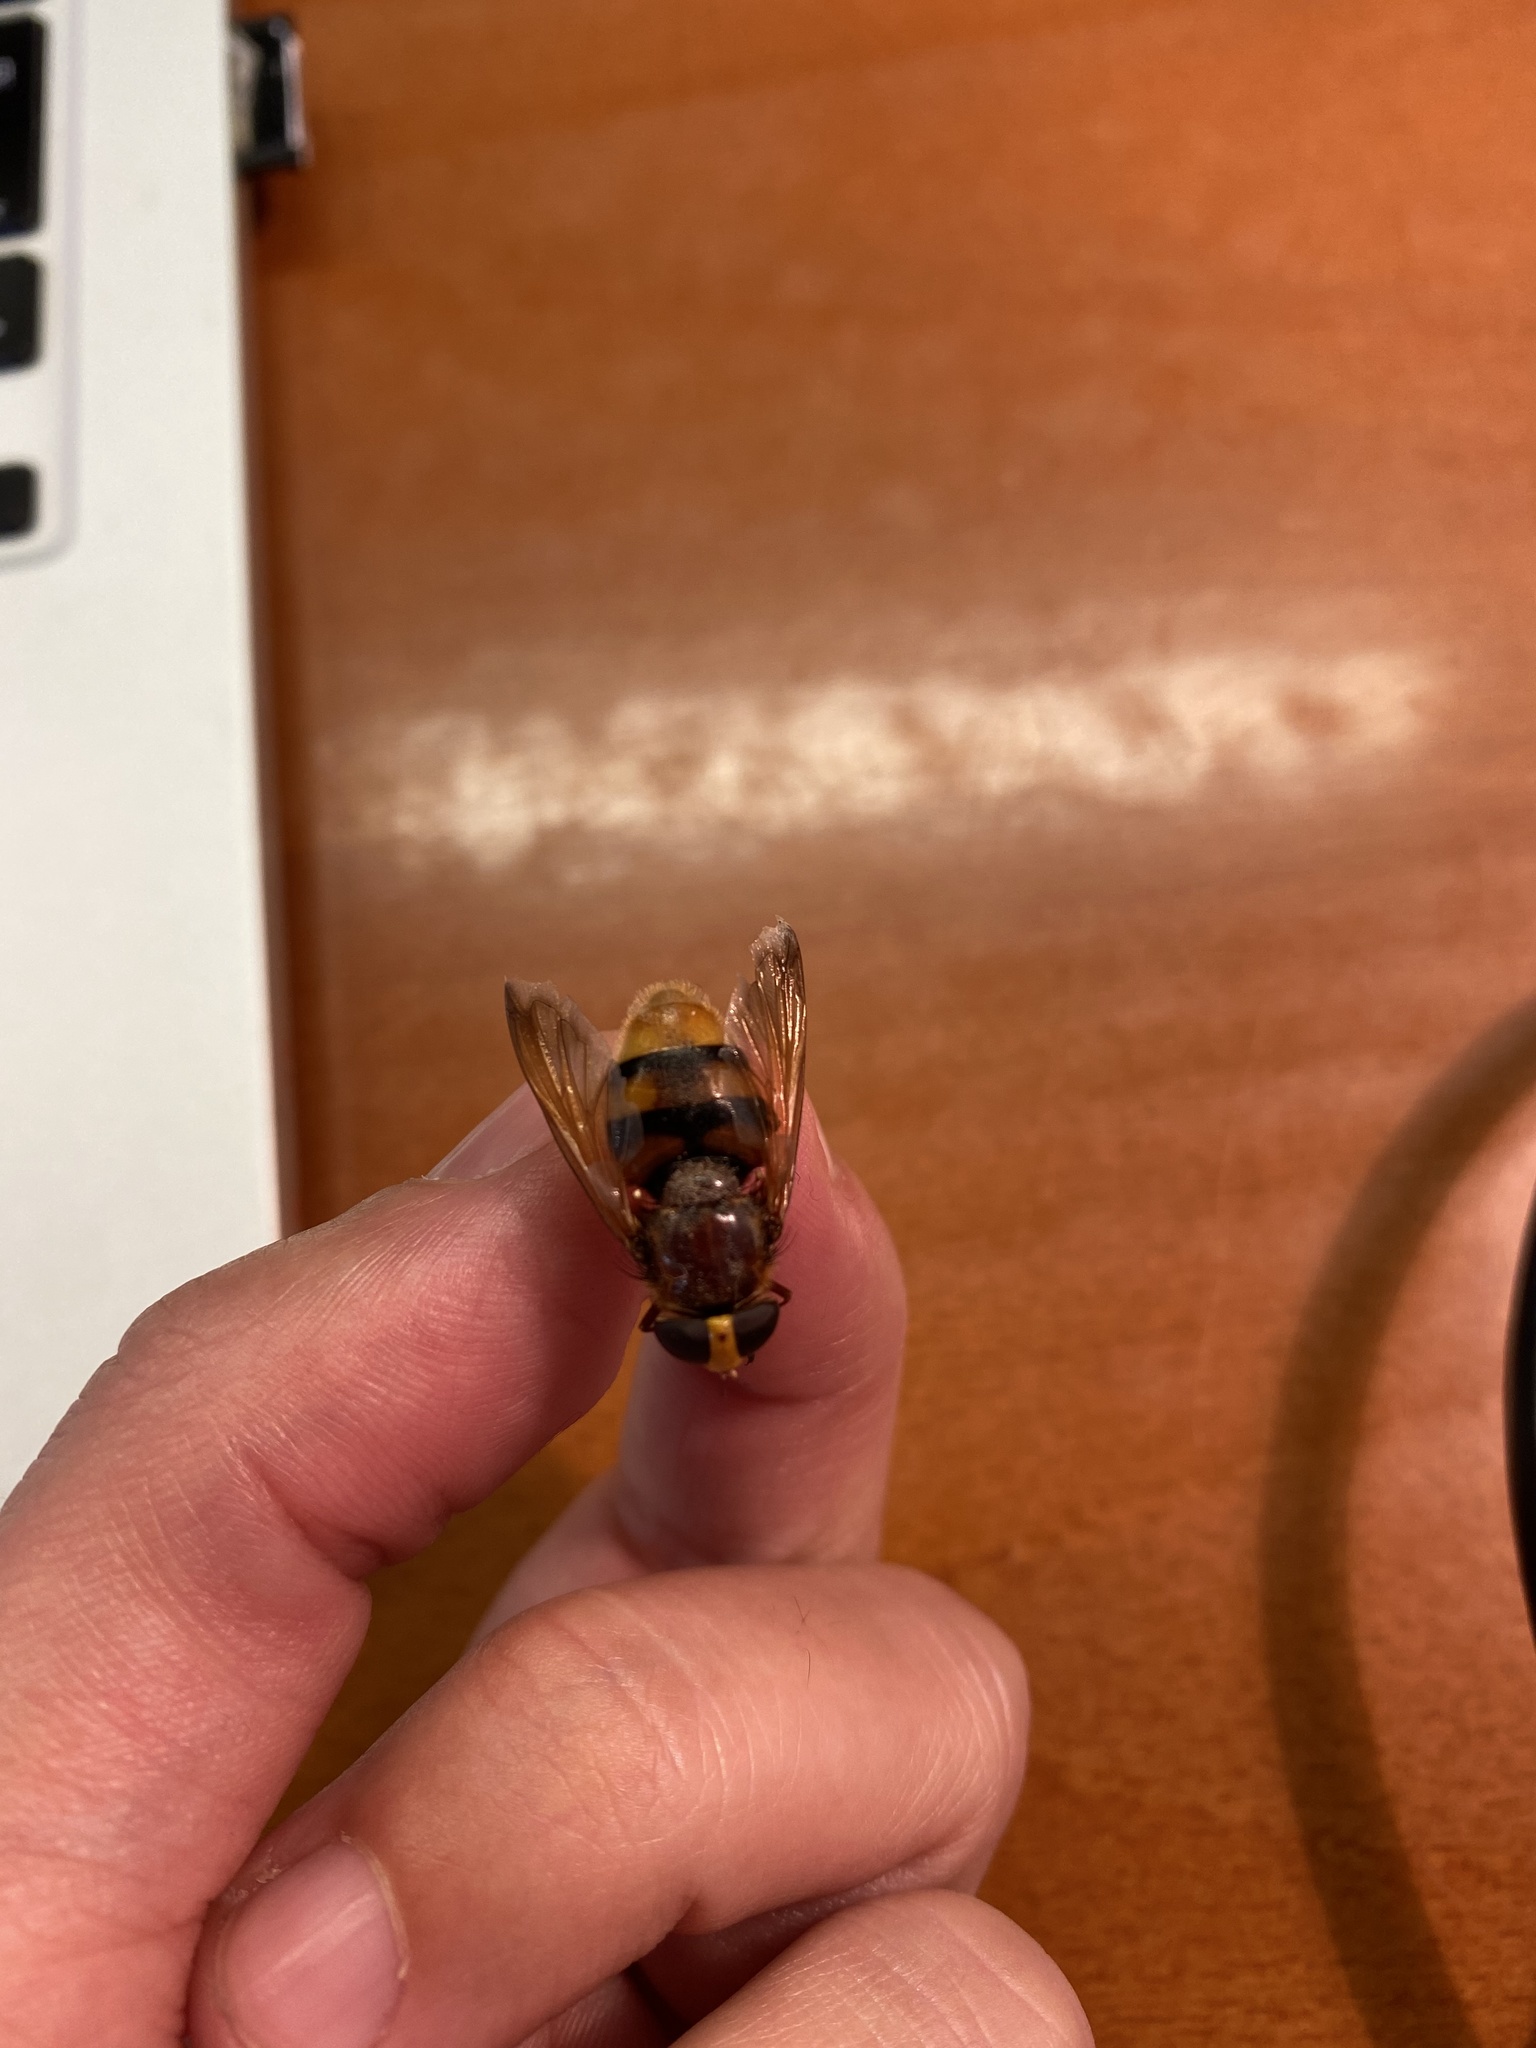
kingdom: Animalia
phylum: Arthropoda
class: Insecta
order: Diptera
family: Syrphidae
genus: Volucella
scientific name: Volucella zonaria
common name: Hornet hoverfly
